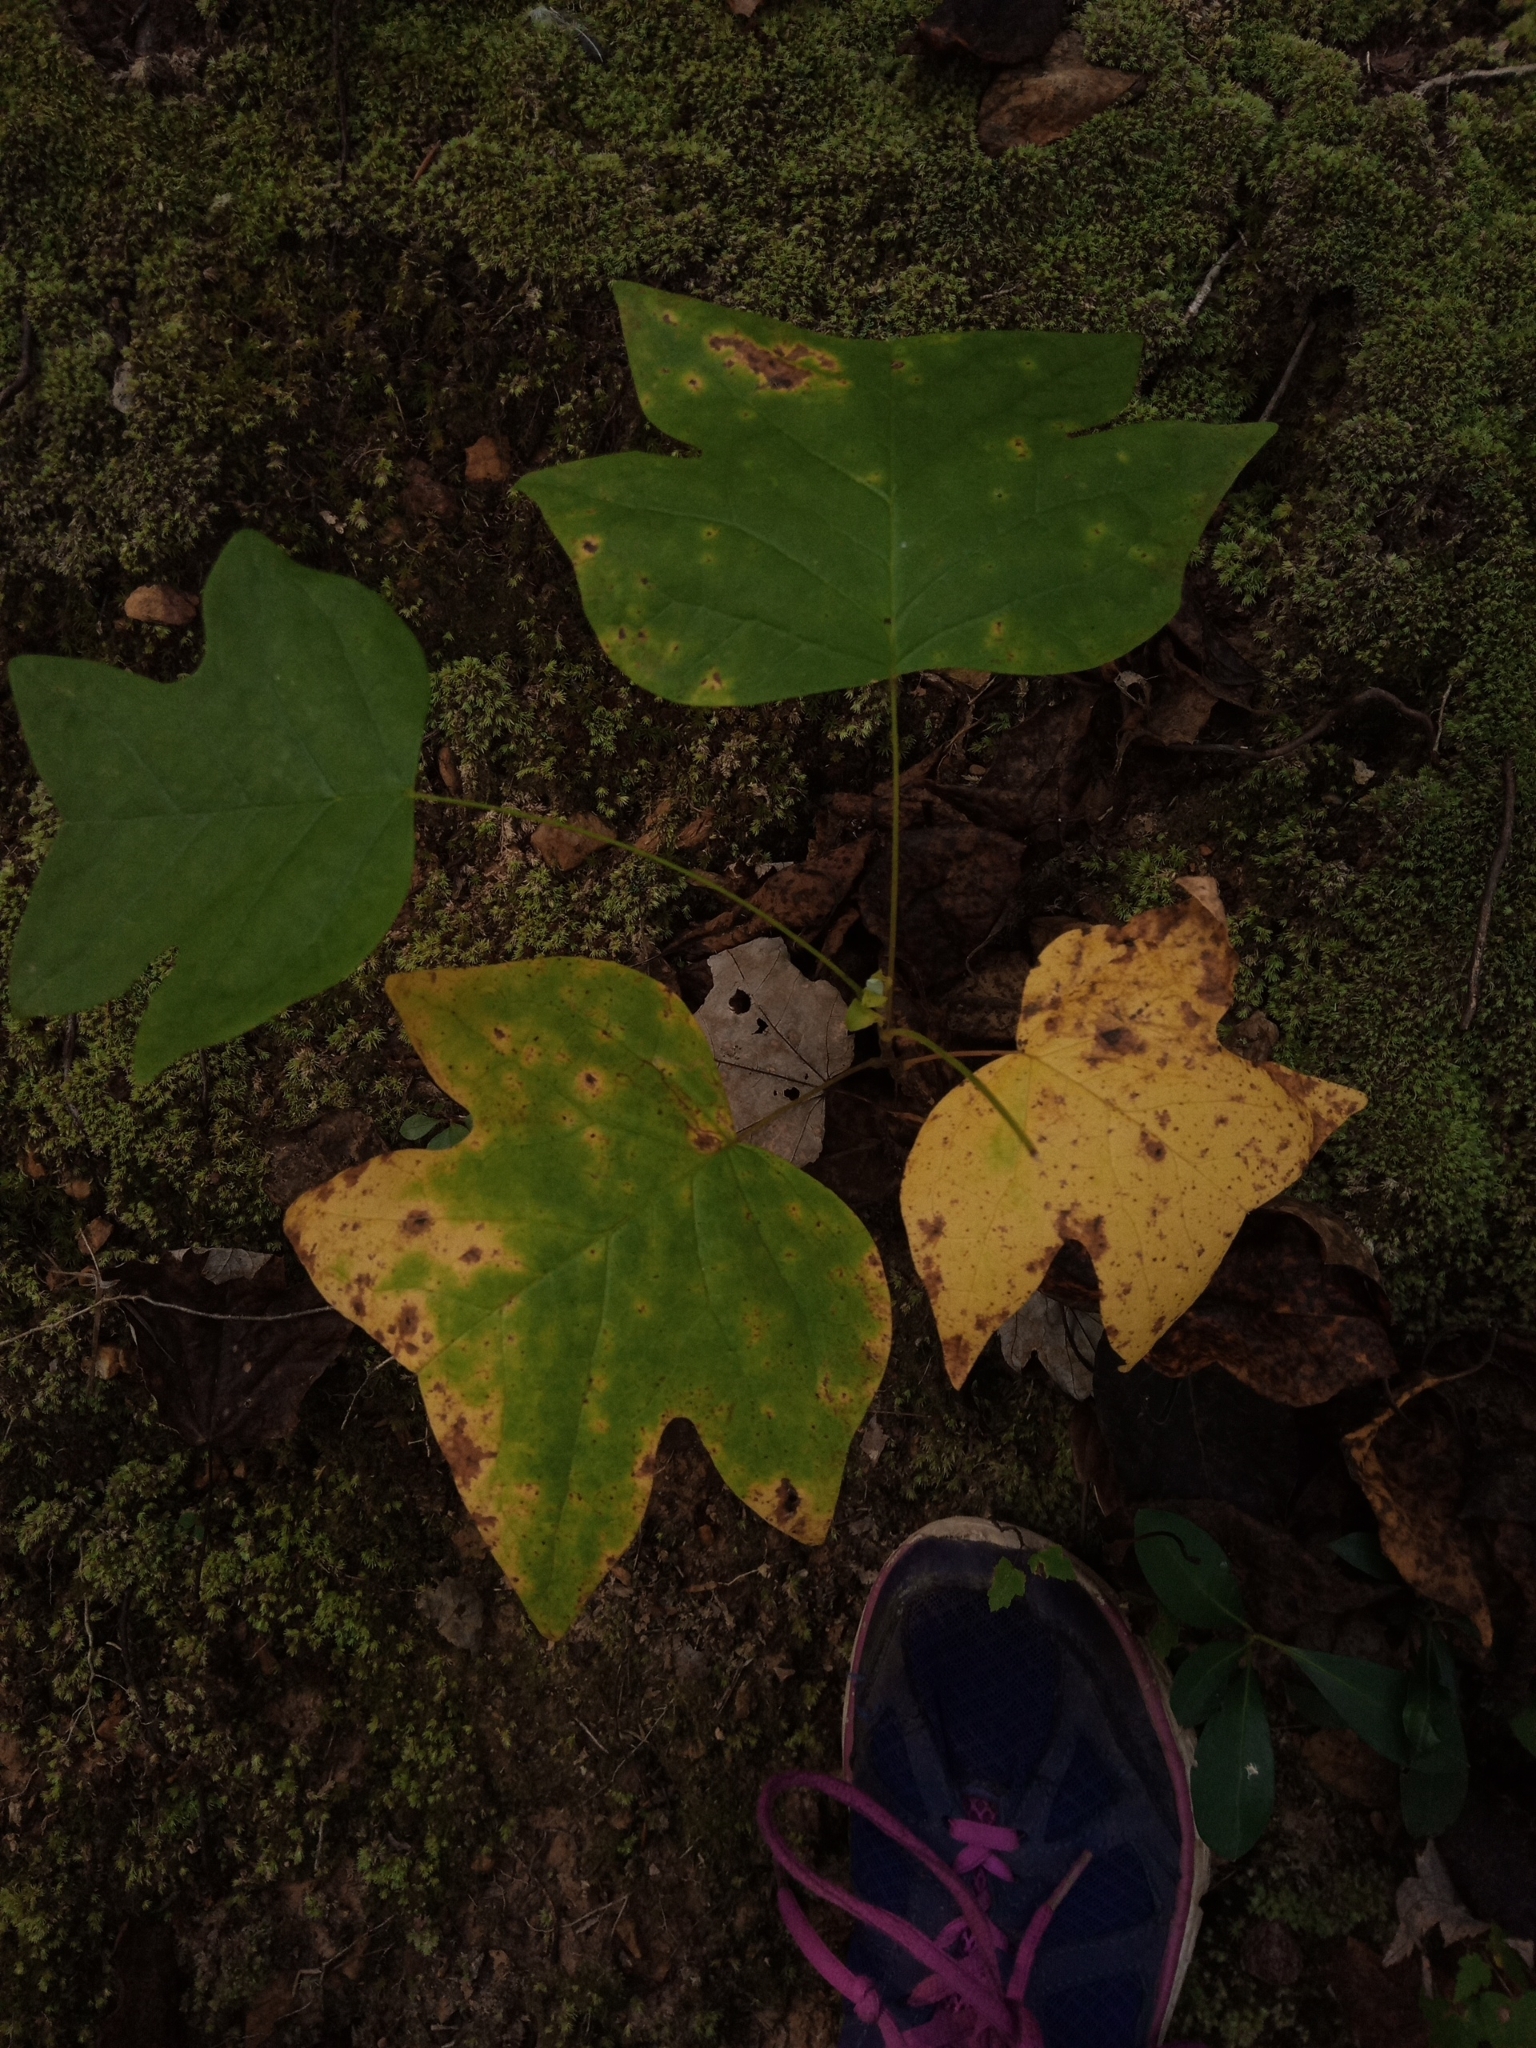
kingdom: Plantae
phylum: Tracheophyta
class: Magnoliopsida
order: Magnoliales
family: Magnoliaceae
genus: Liriodendron
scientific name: Liriodendron tulipifera
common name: Tulip tree
